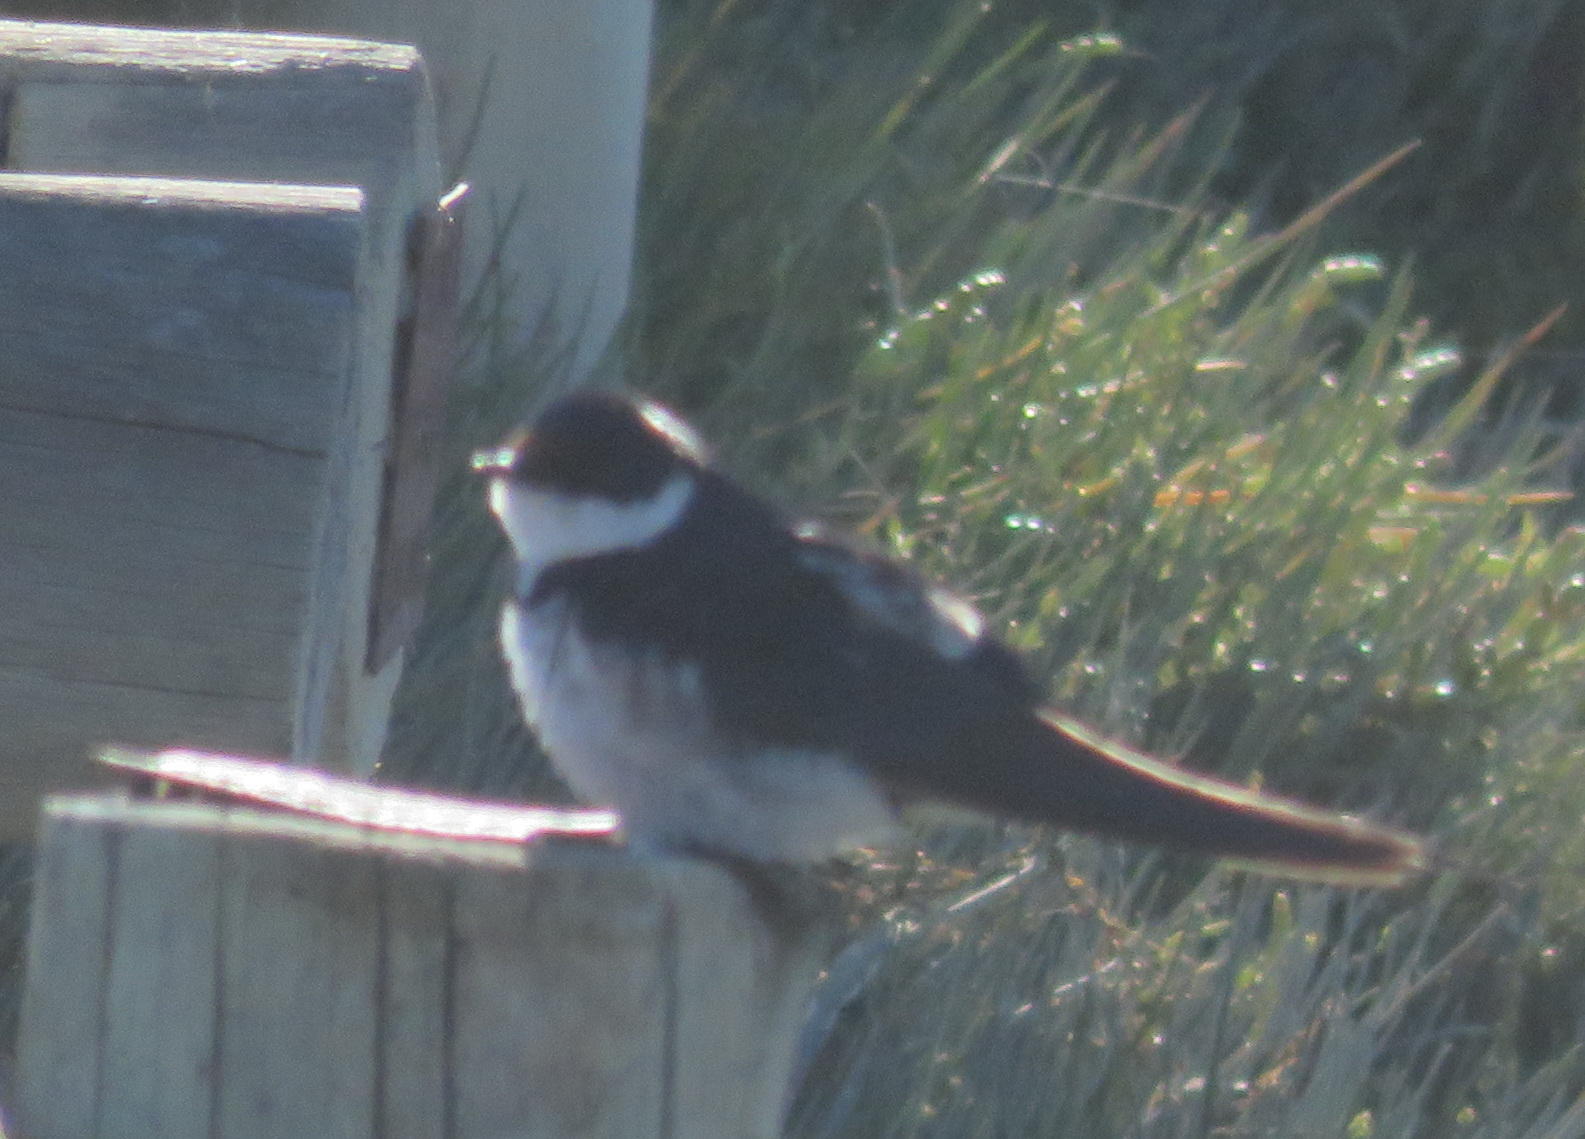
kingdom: Animalia
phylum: Chordata
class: Aves
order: Passeriformes
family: Hirundinidae
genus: Hirundo
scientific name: Hirundo albigularis
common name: White-throated swallow
